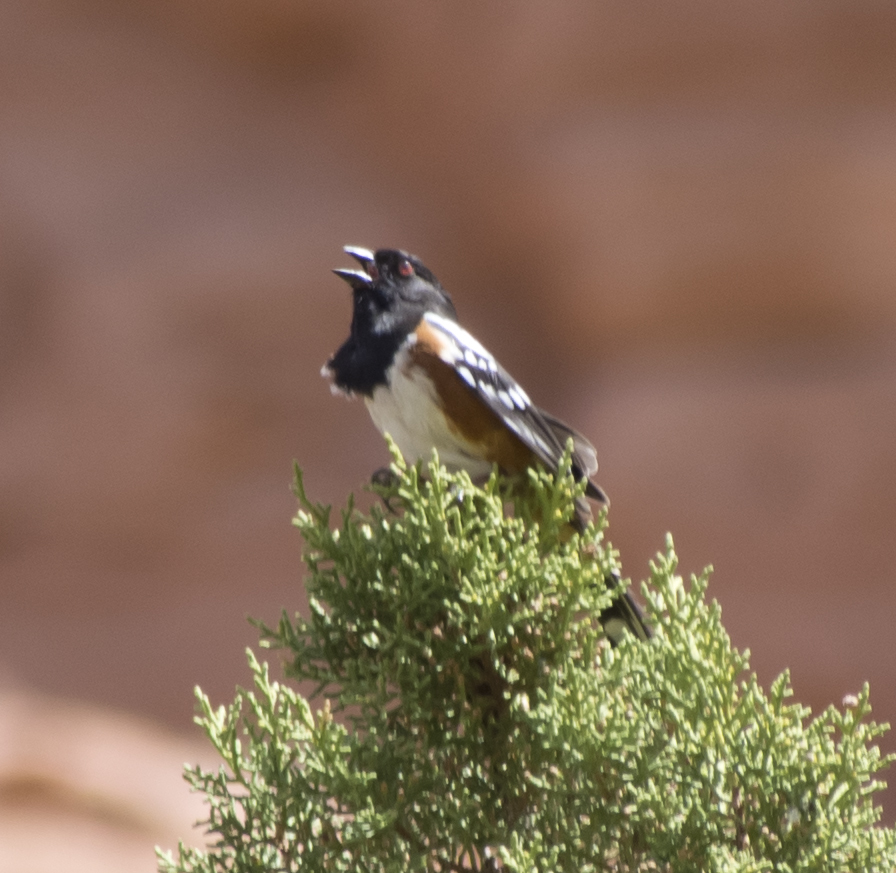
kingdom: Animalia
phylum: Chordata
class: Aves
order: Passeriformes
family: Passerellidae
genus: Pipilo
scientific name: Pipilo maculatus
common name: Spotted towhee
